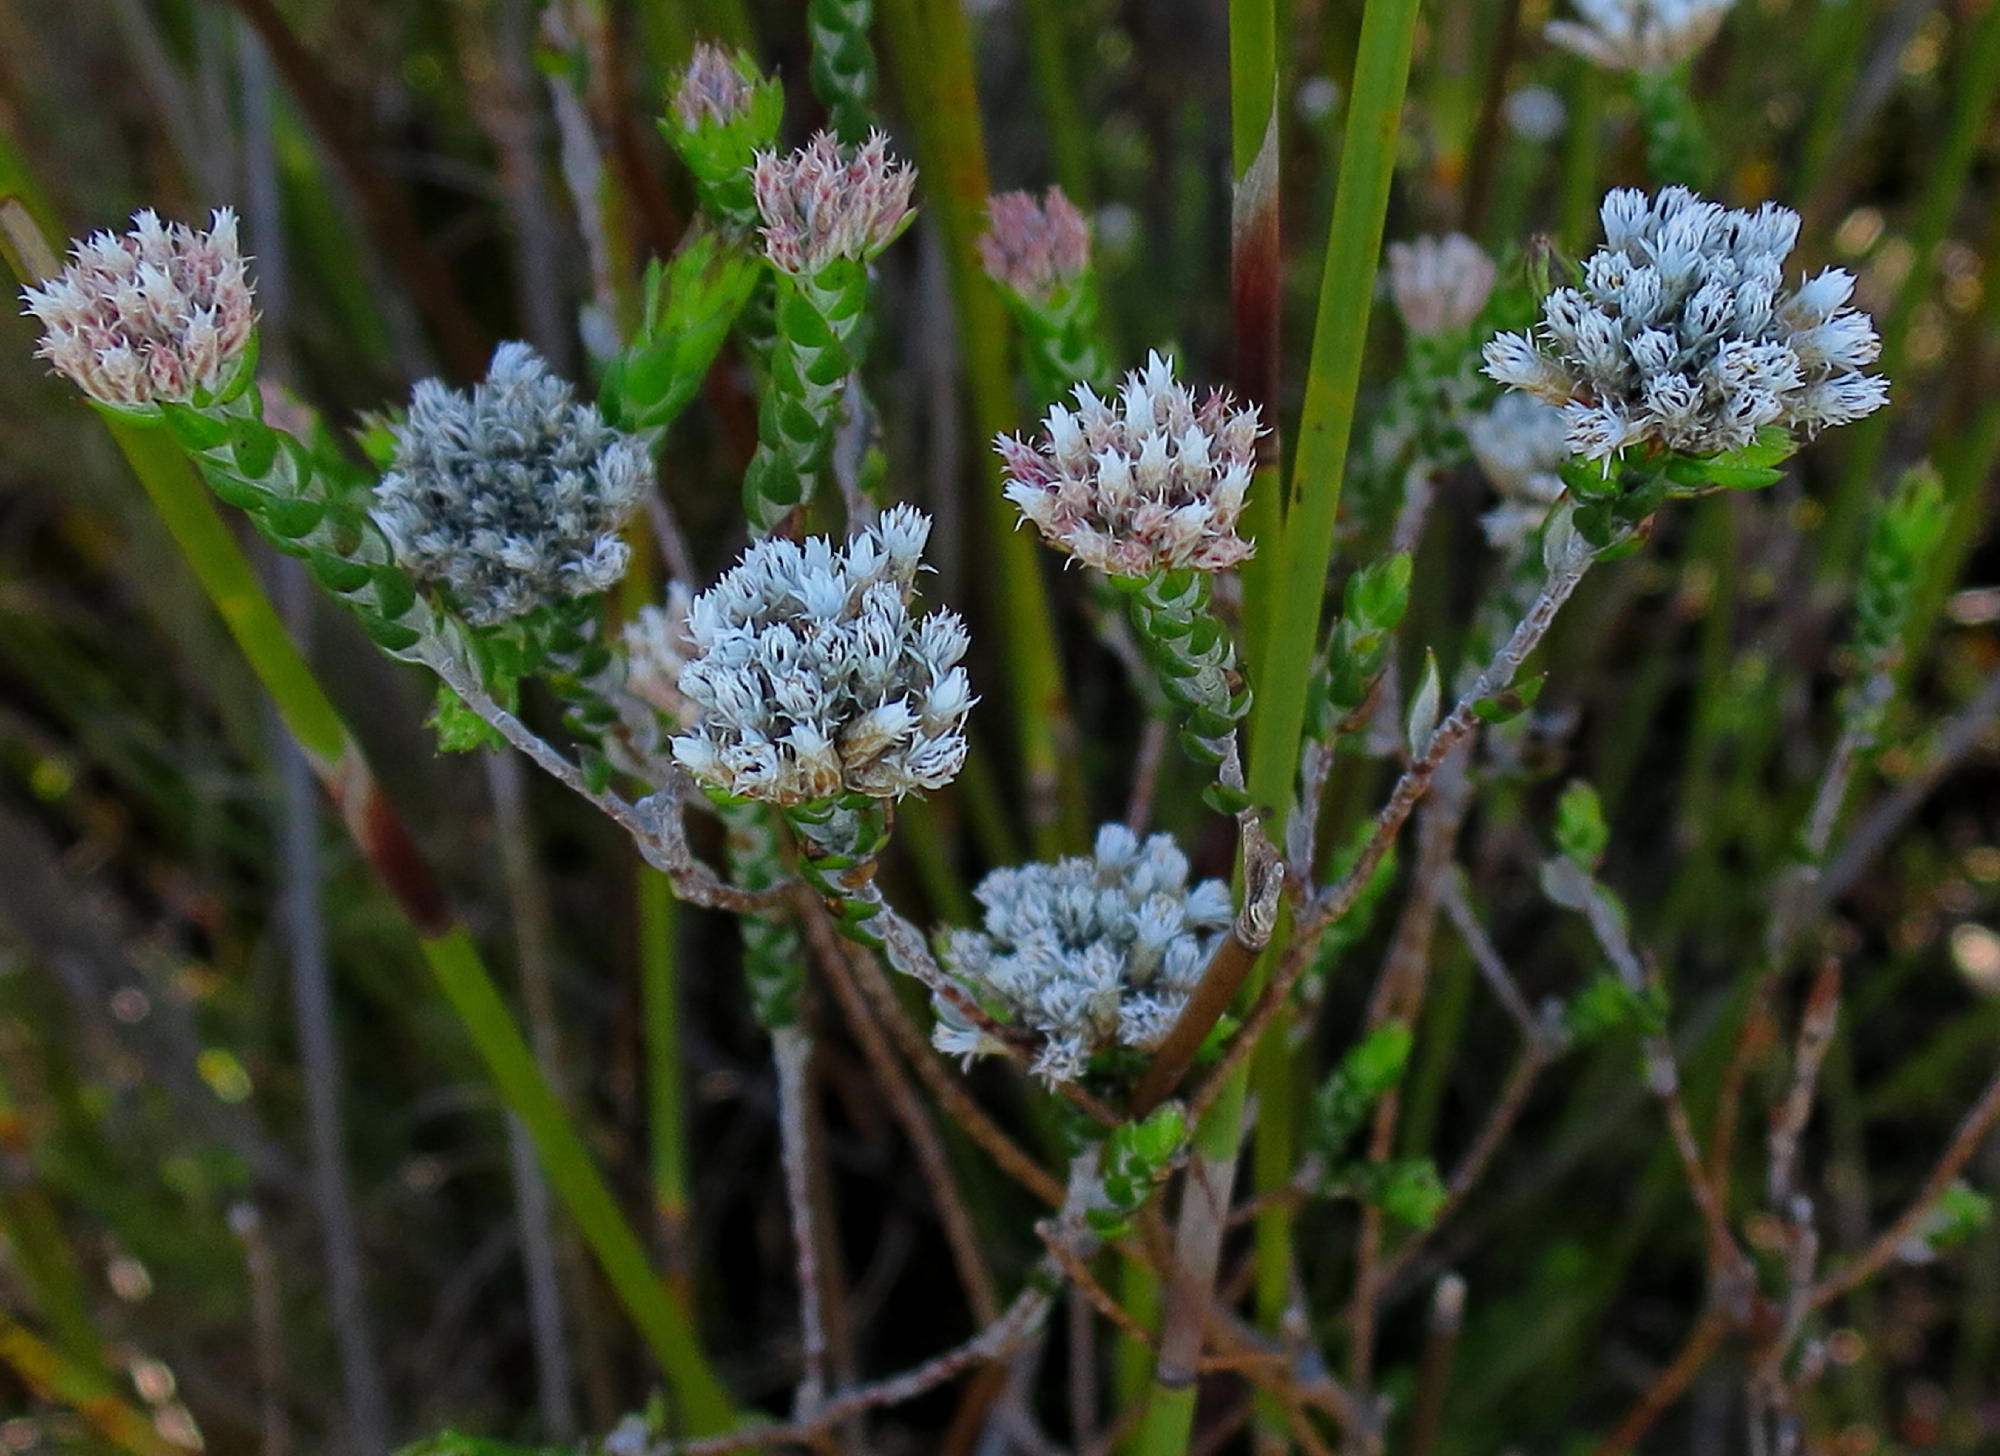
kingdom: Plantae
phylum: Tracheophyta
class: Magnoliopsida
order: Asterales
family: Asteraceae
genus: Metalasia
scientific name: Metalasia pulcherrima
